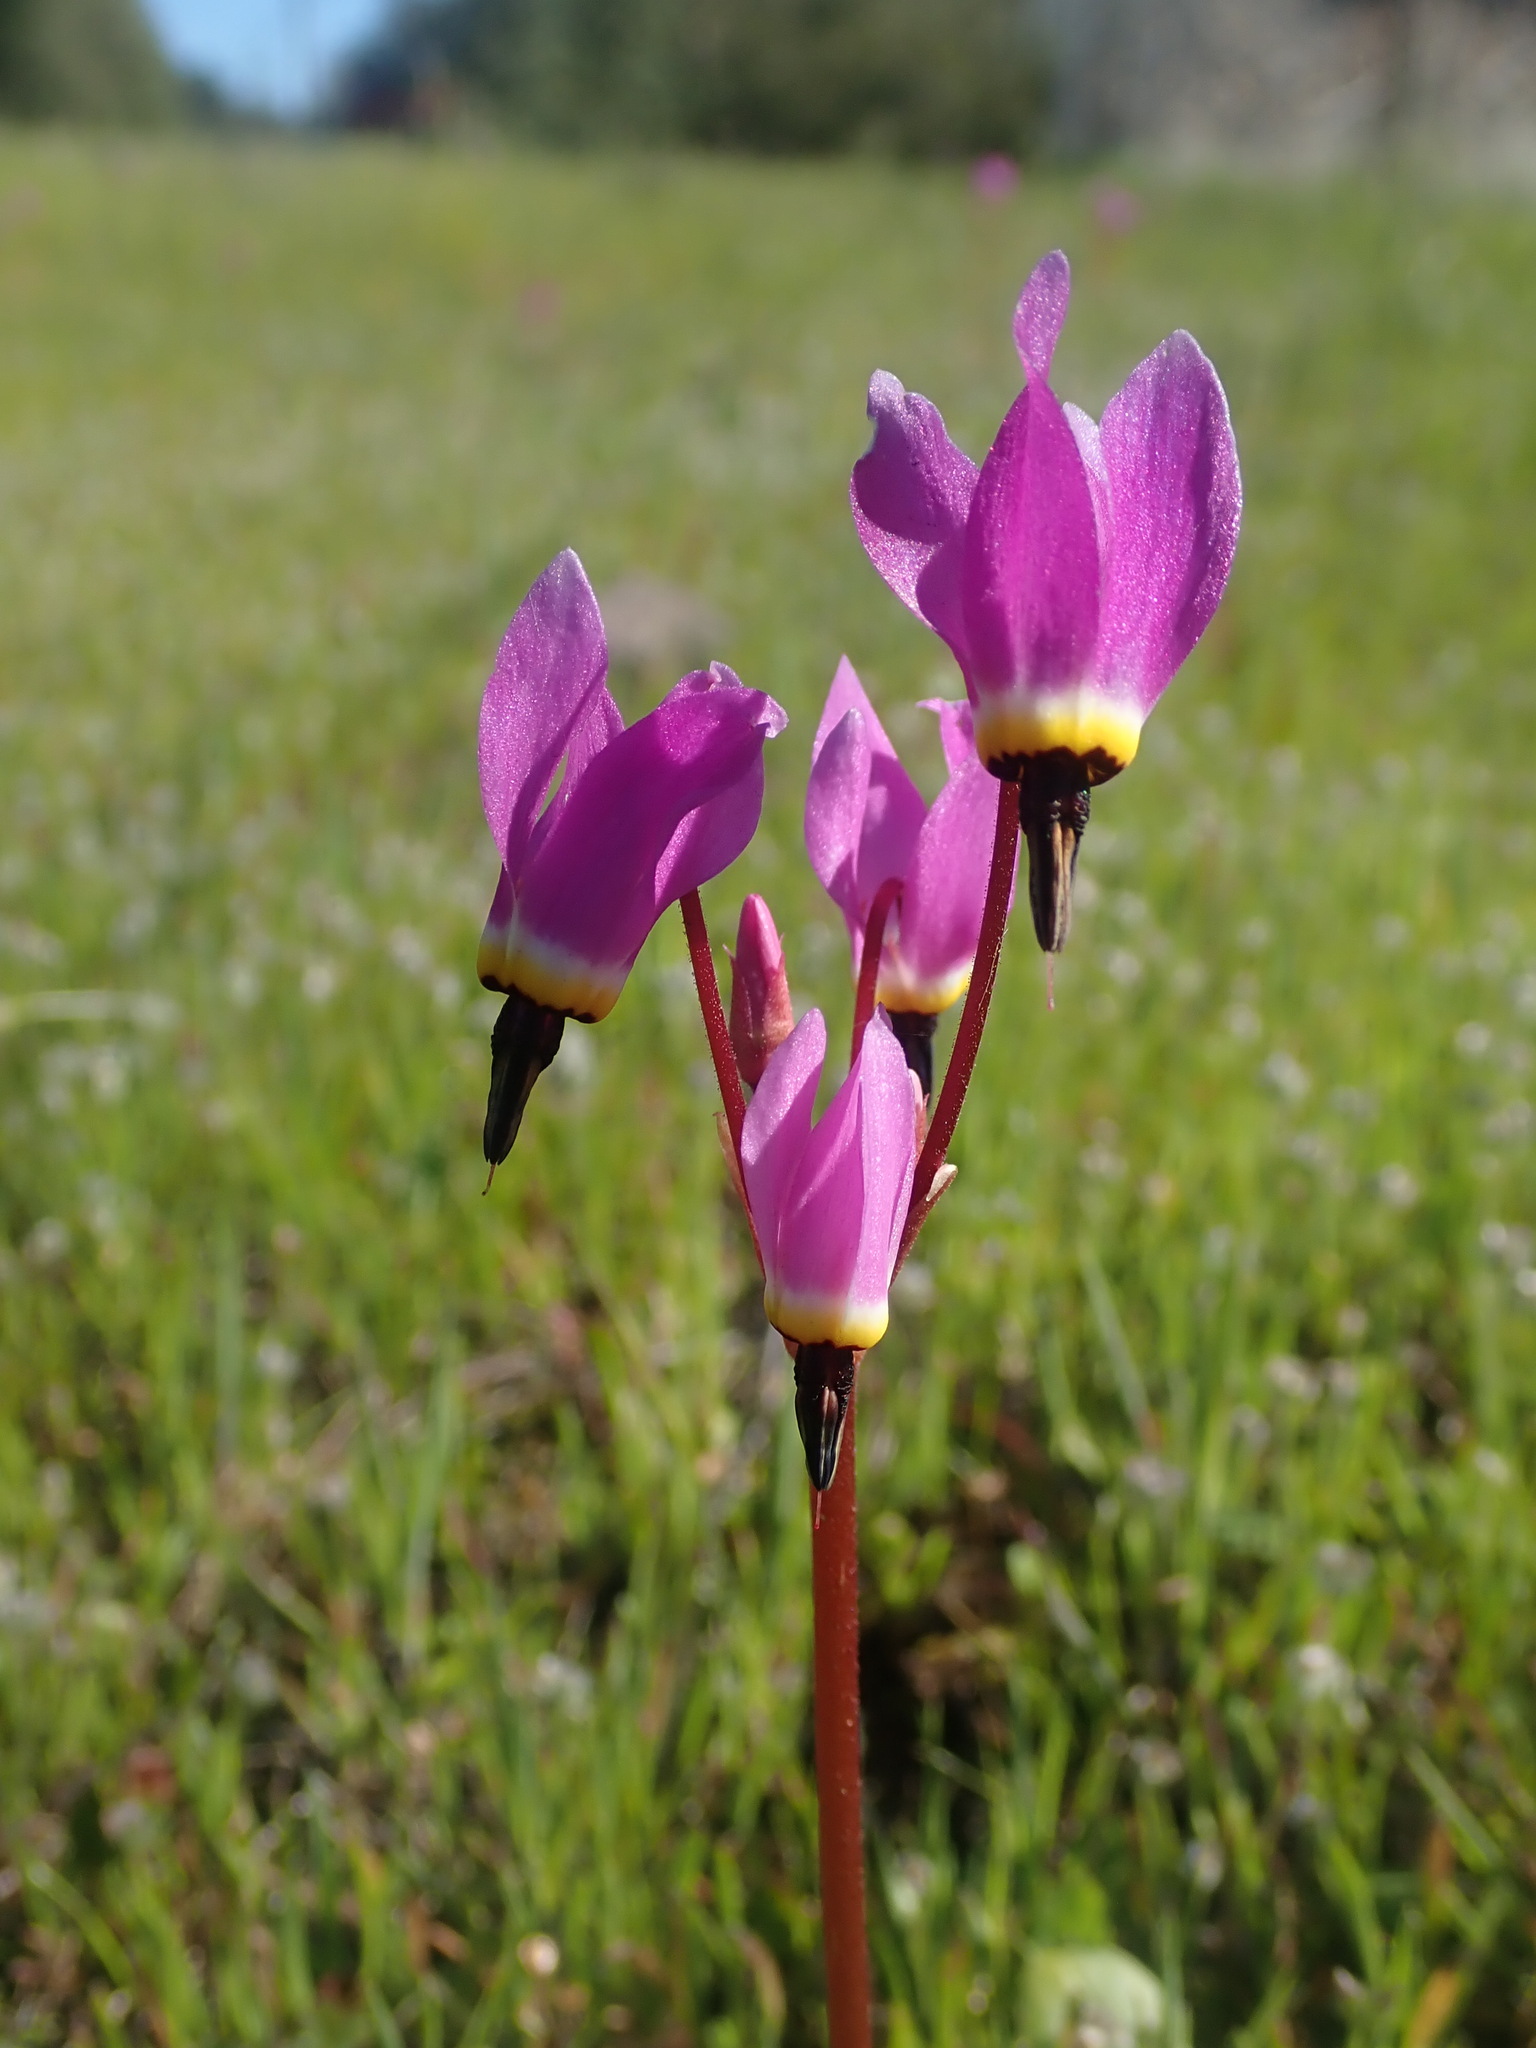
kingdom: Plantae
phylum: Tracheophyta
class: Magnoliopsida
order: Ericales
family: Primulaceae
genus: Dodecatheon
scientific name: Dodecatheon hendersonii
